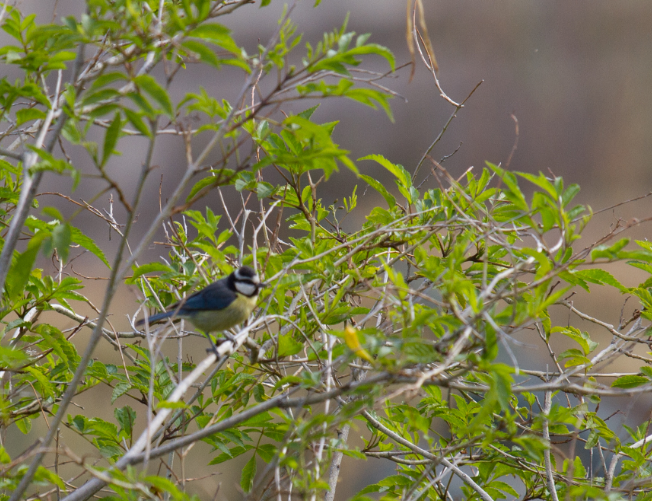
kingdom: Animalia
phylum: Chordata
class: Aves
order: Passeriformes
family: Paridae
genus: Cyanistes
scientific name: Cyanistes teneriffae
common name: African blue tit
